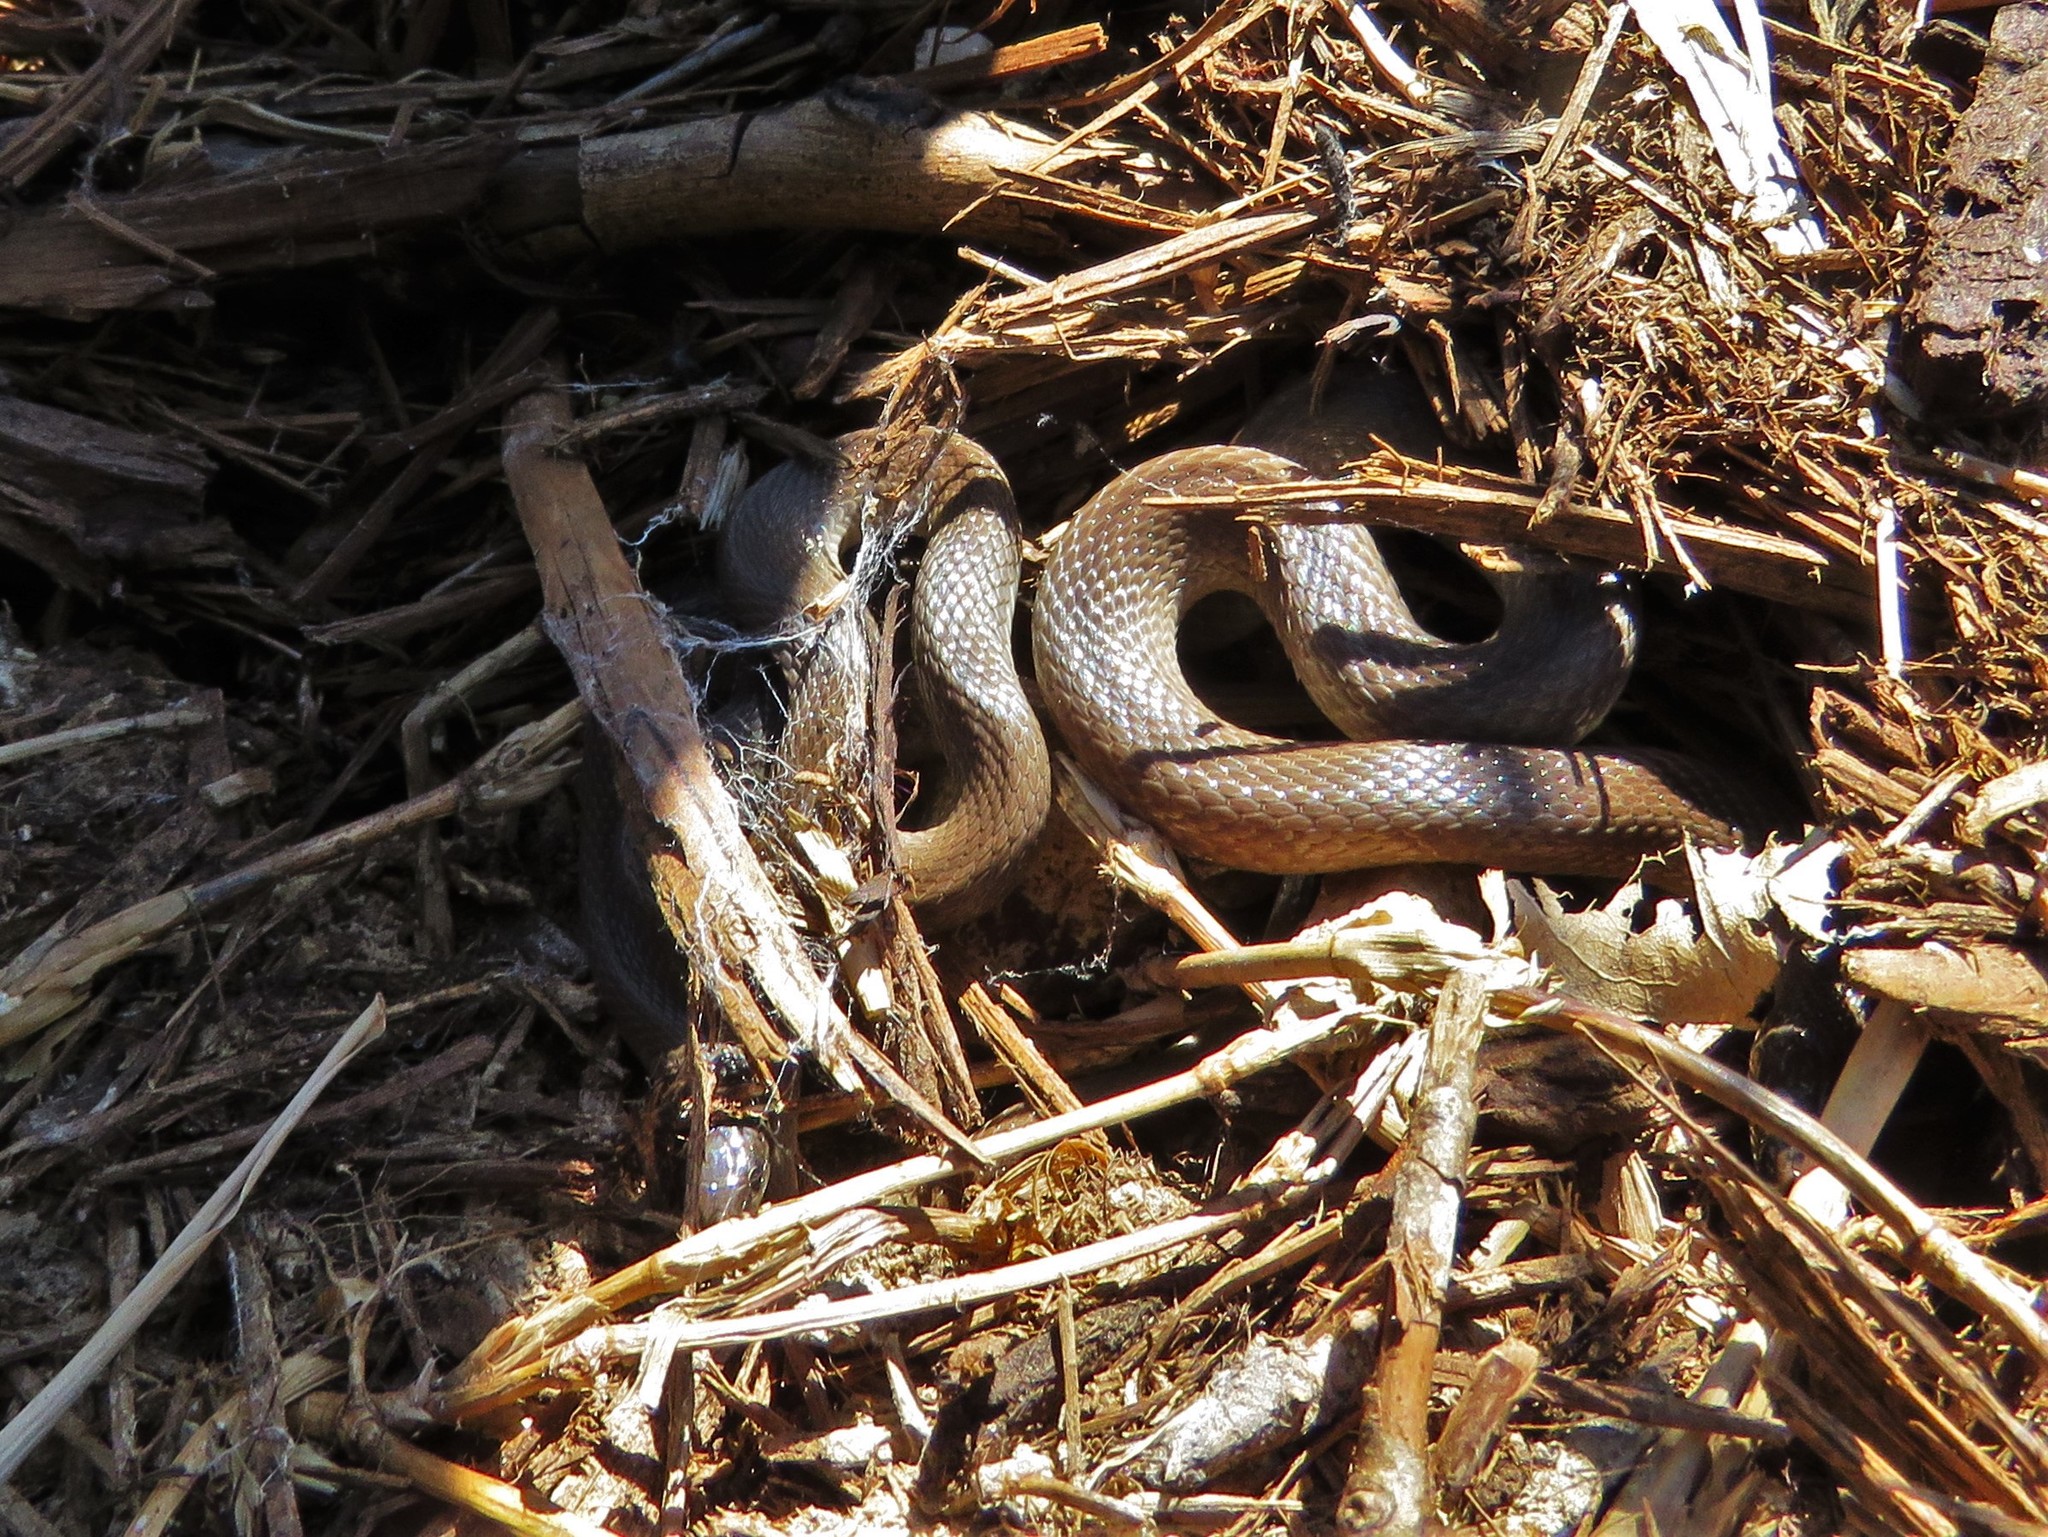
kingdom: Animalia
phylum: Chordata
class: Squamata
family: Colubridae
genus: Haldea
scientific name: Haldea striatula
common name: Rough earth snake
